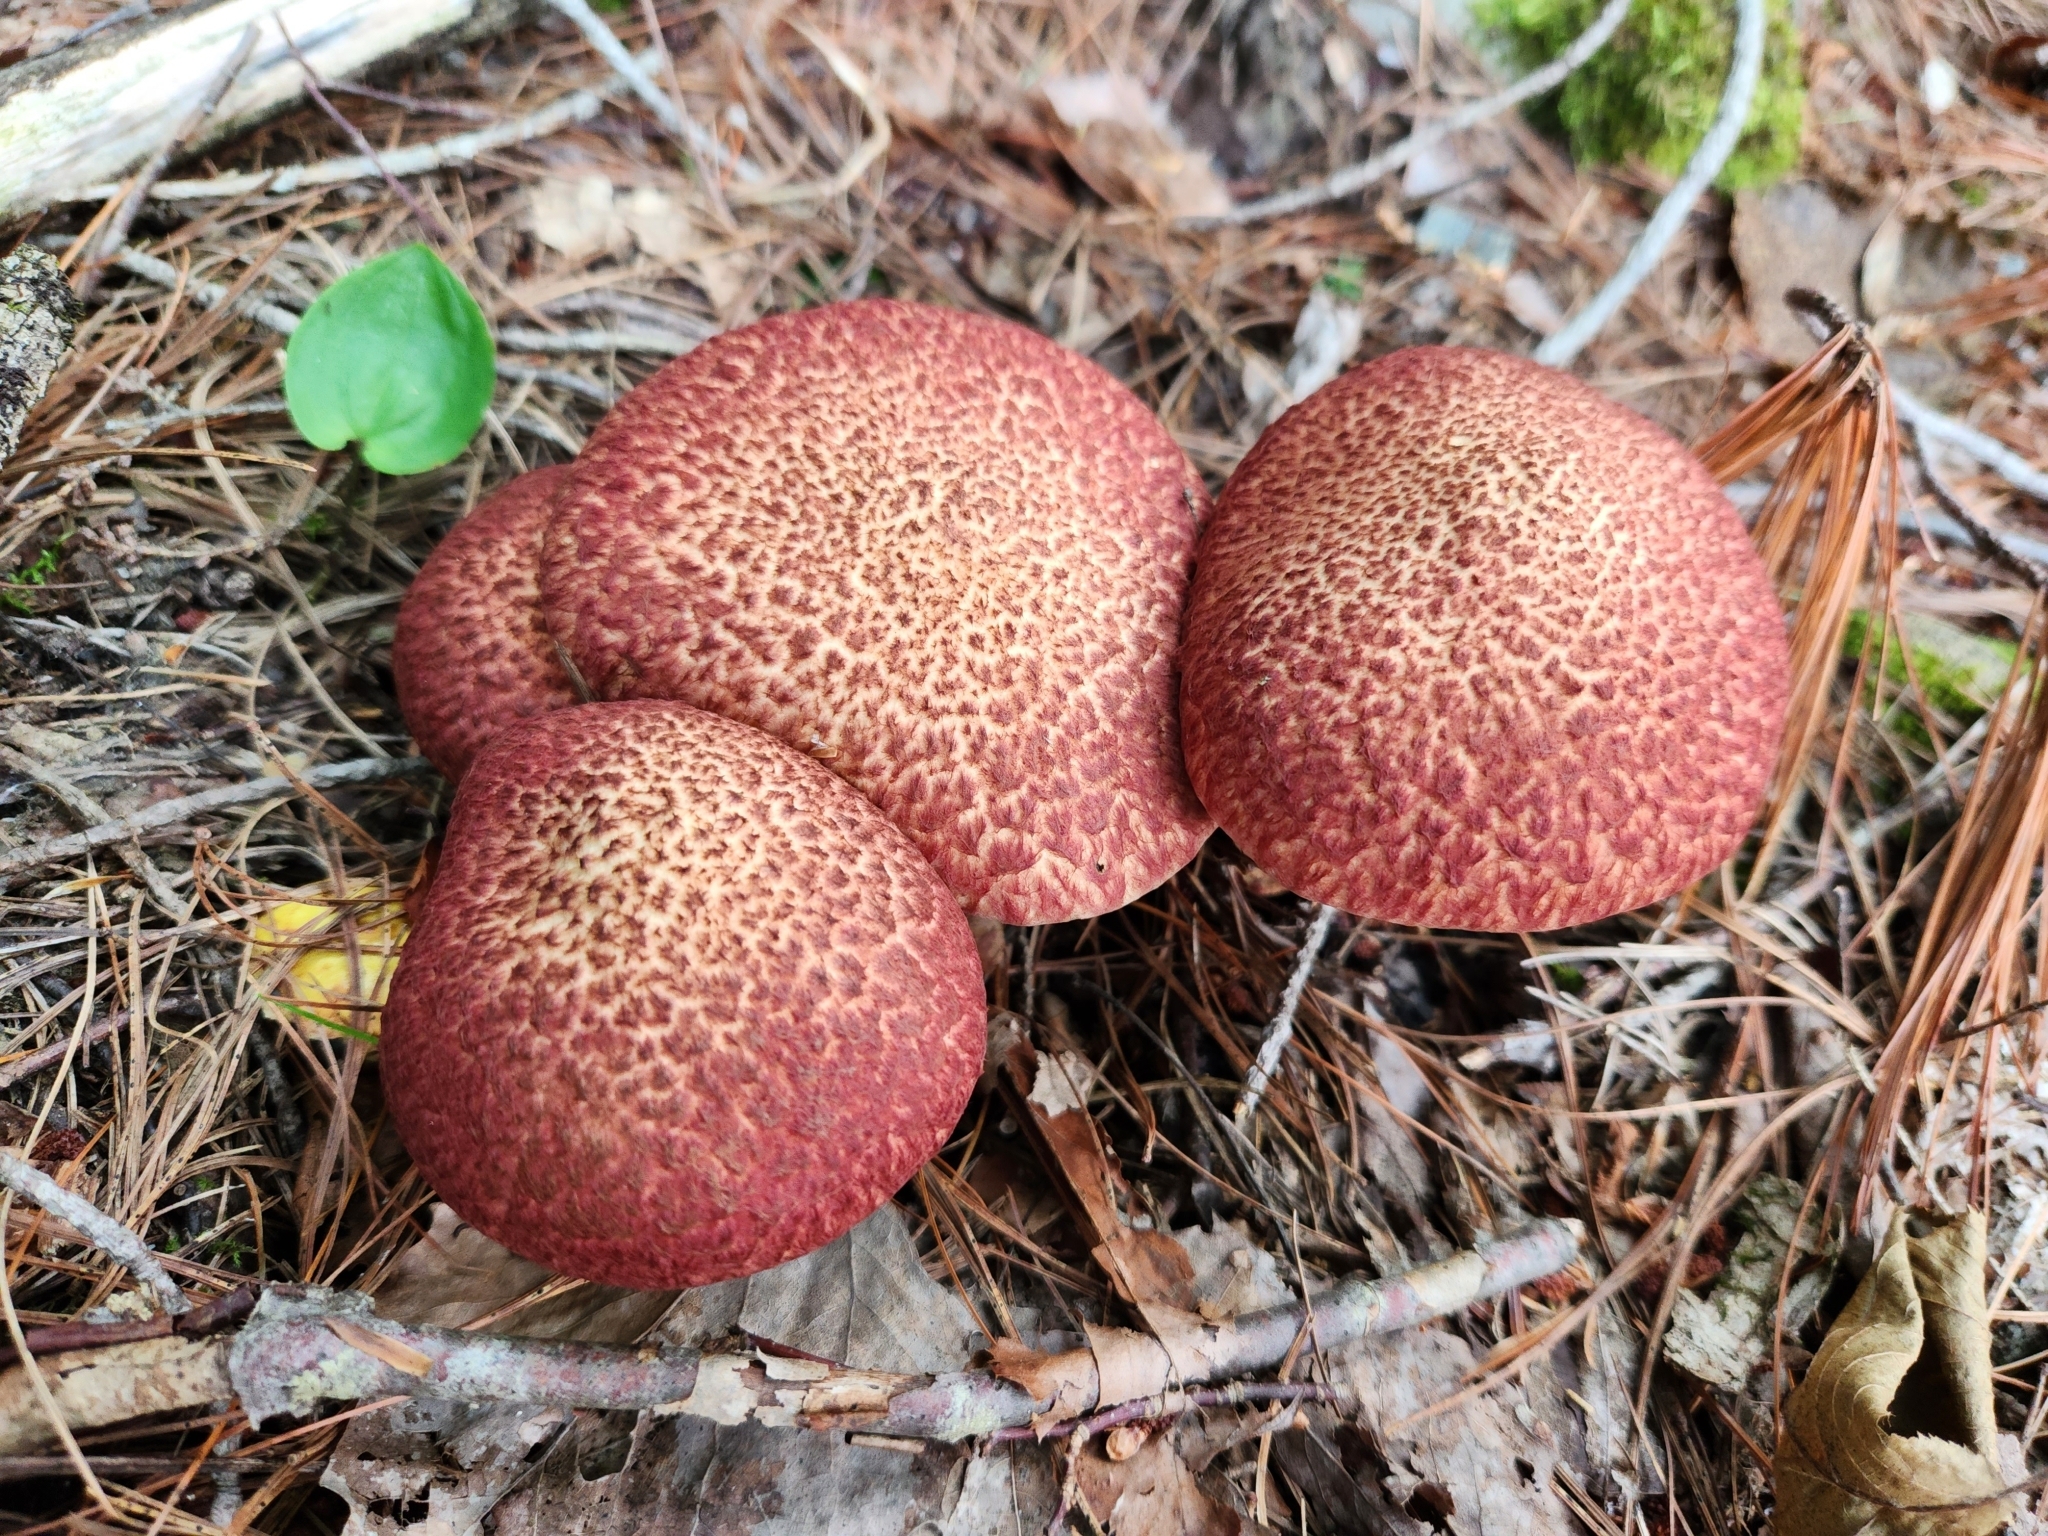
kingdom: Fungi
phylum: Basidiomycota
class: Agaricomycetes
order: Boletales
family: Suillaceae
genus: Suillus
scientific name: Suillus spraguei
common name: Painted suillus
